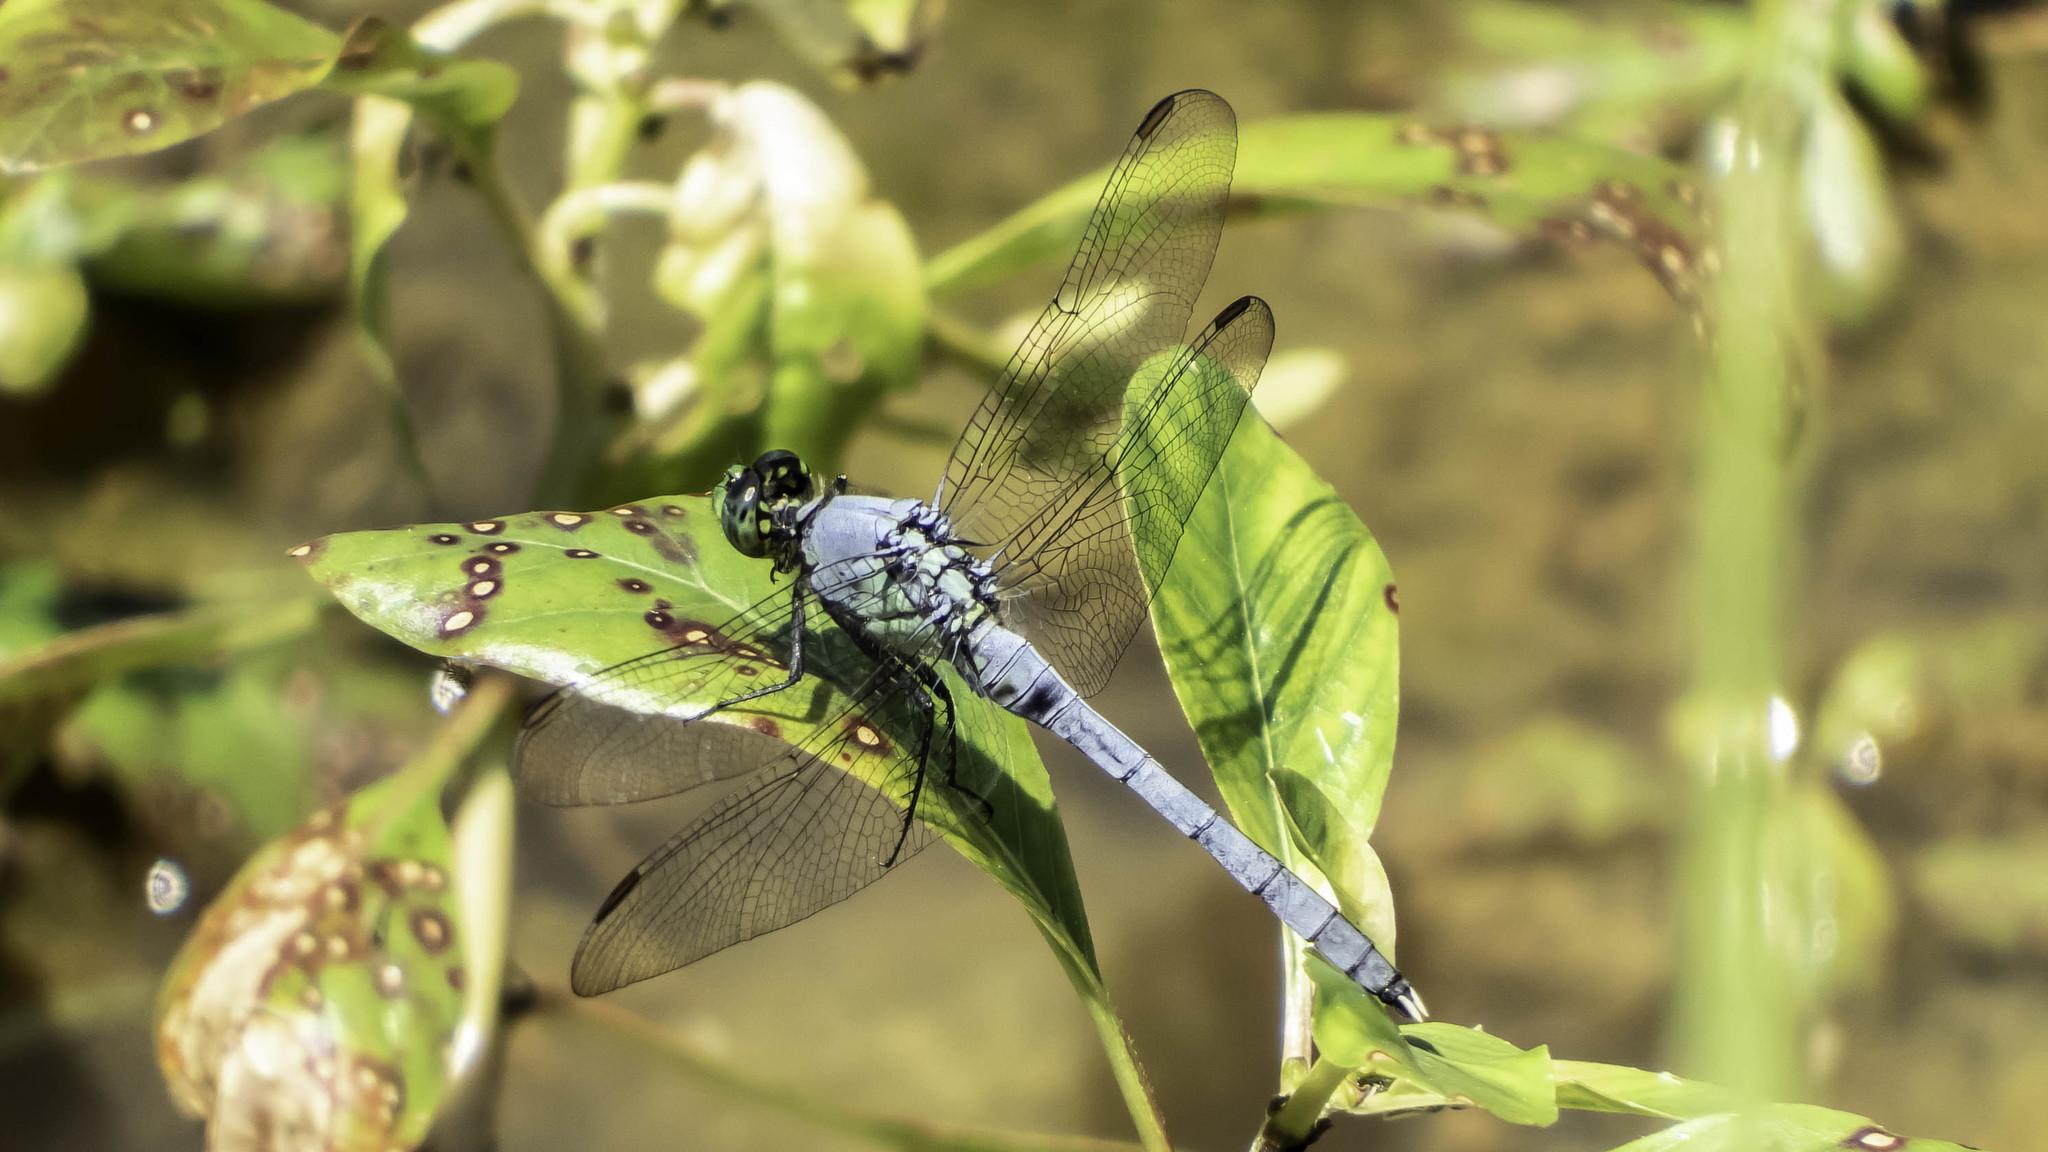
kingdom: Animalia
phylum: Arthropoda
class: Insecta
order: Odonata
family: Libellulidae
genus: Erythemis
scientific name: Erythemis simplicicollis
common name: Eastern pondhawk
